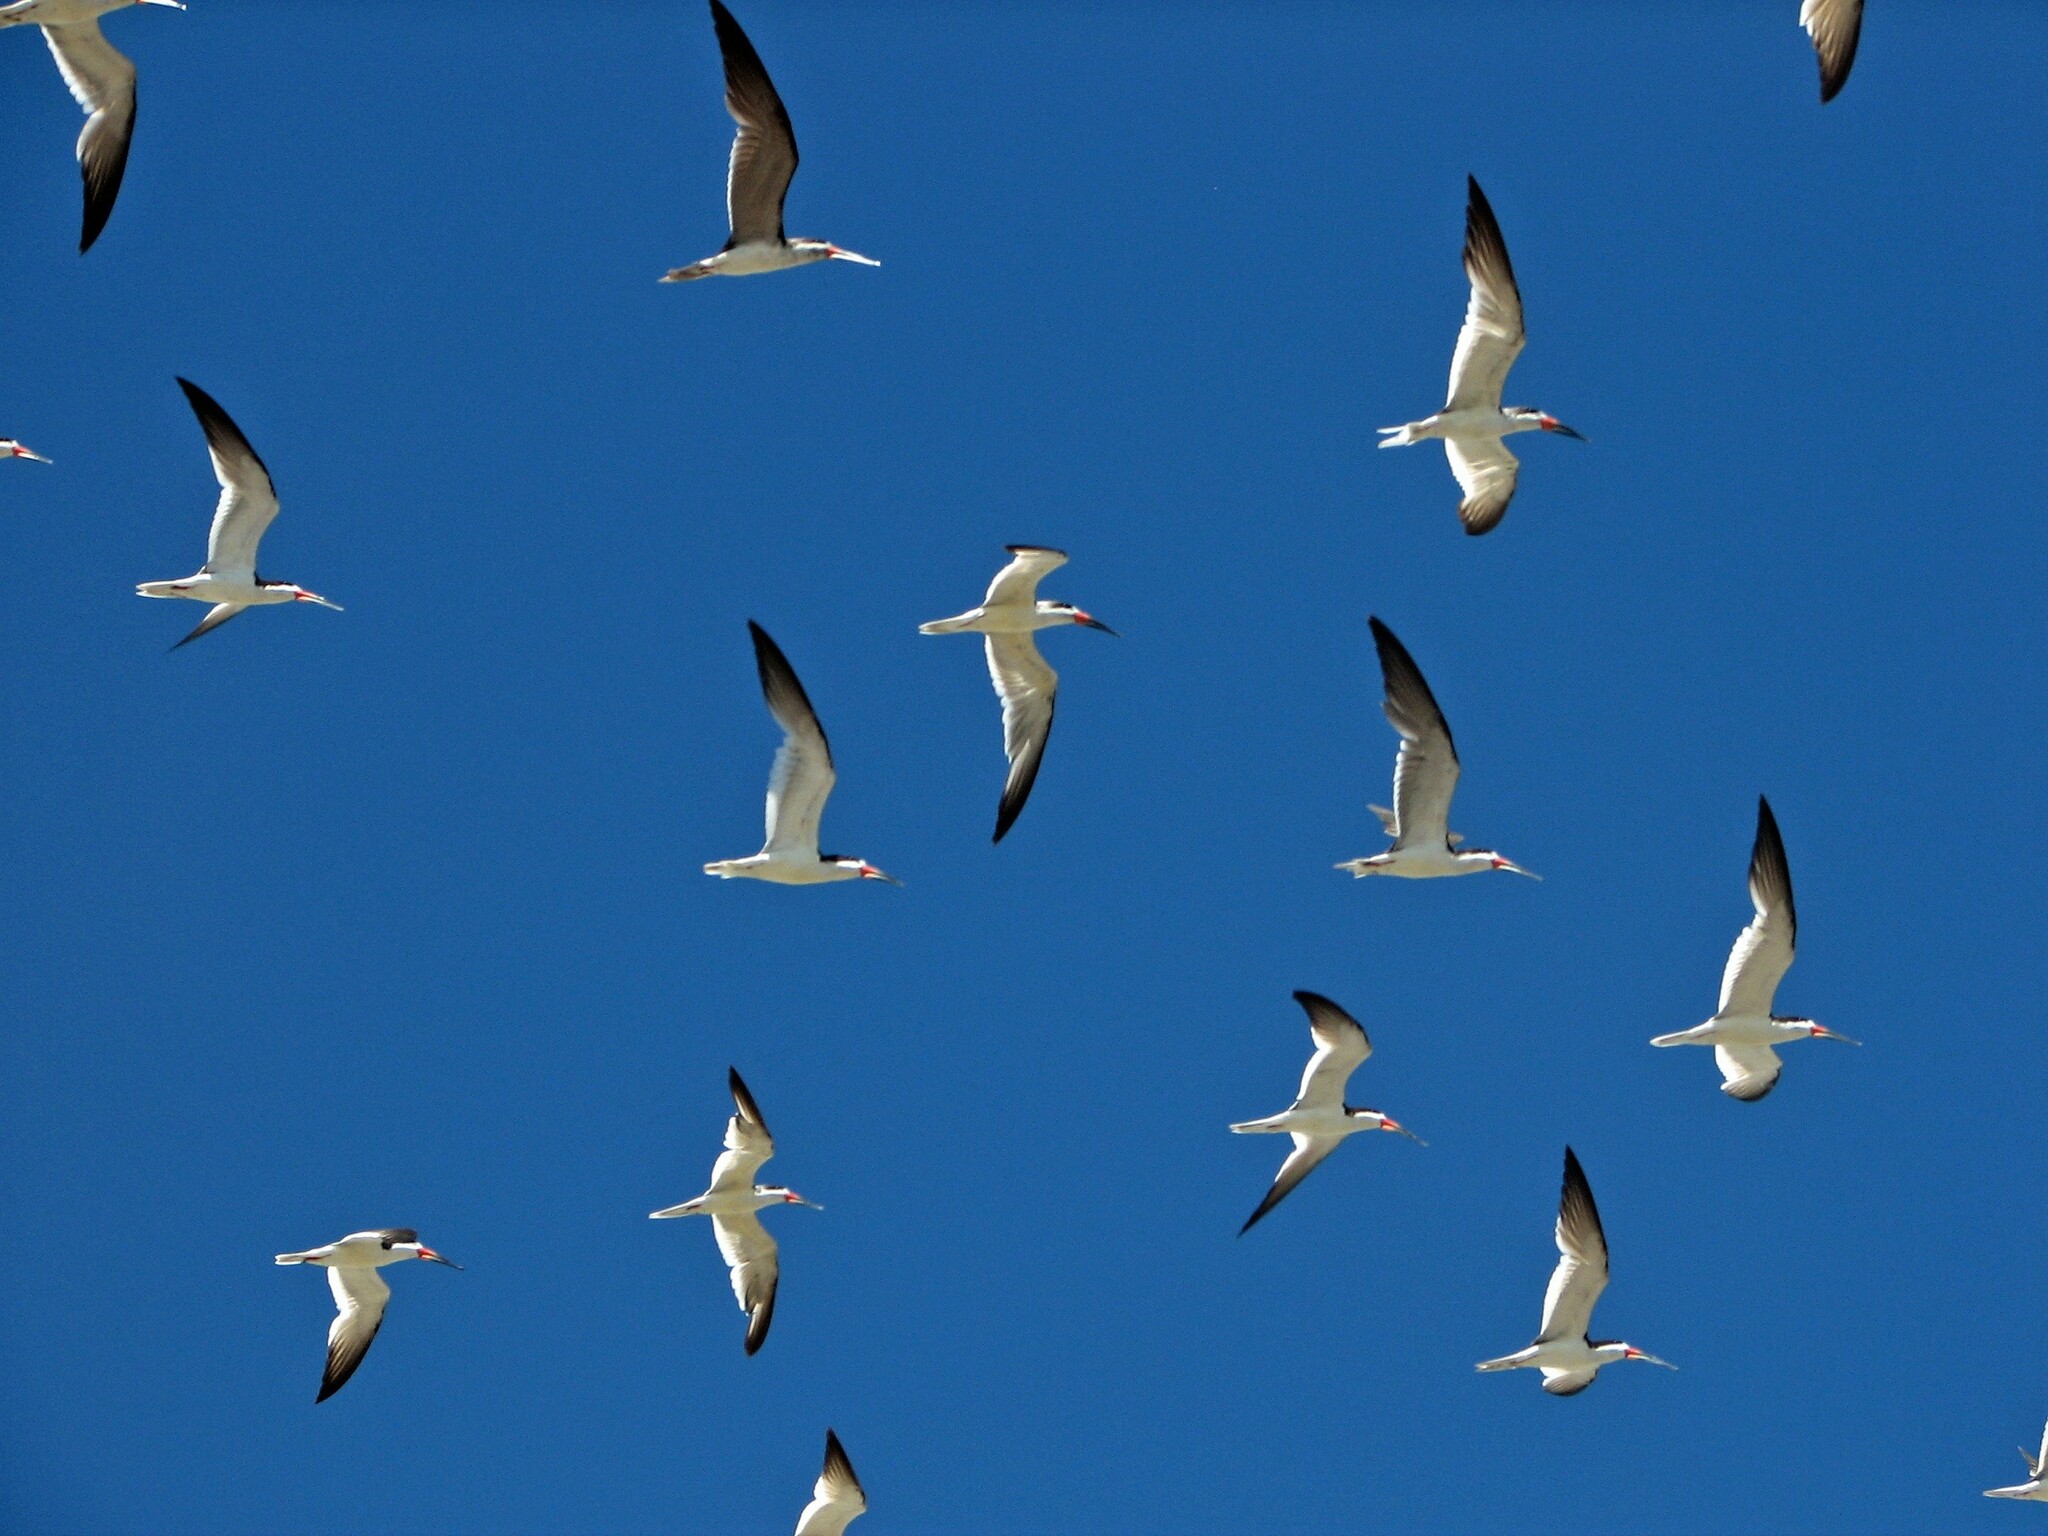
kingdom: Animalia
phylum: Chordata
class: Aves
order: Charadriiformes
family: Laridae
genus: Rynchops
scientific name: Rynchops niger
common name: Black skimmer
